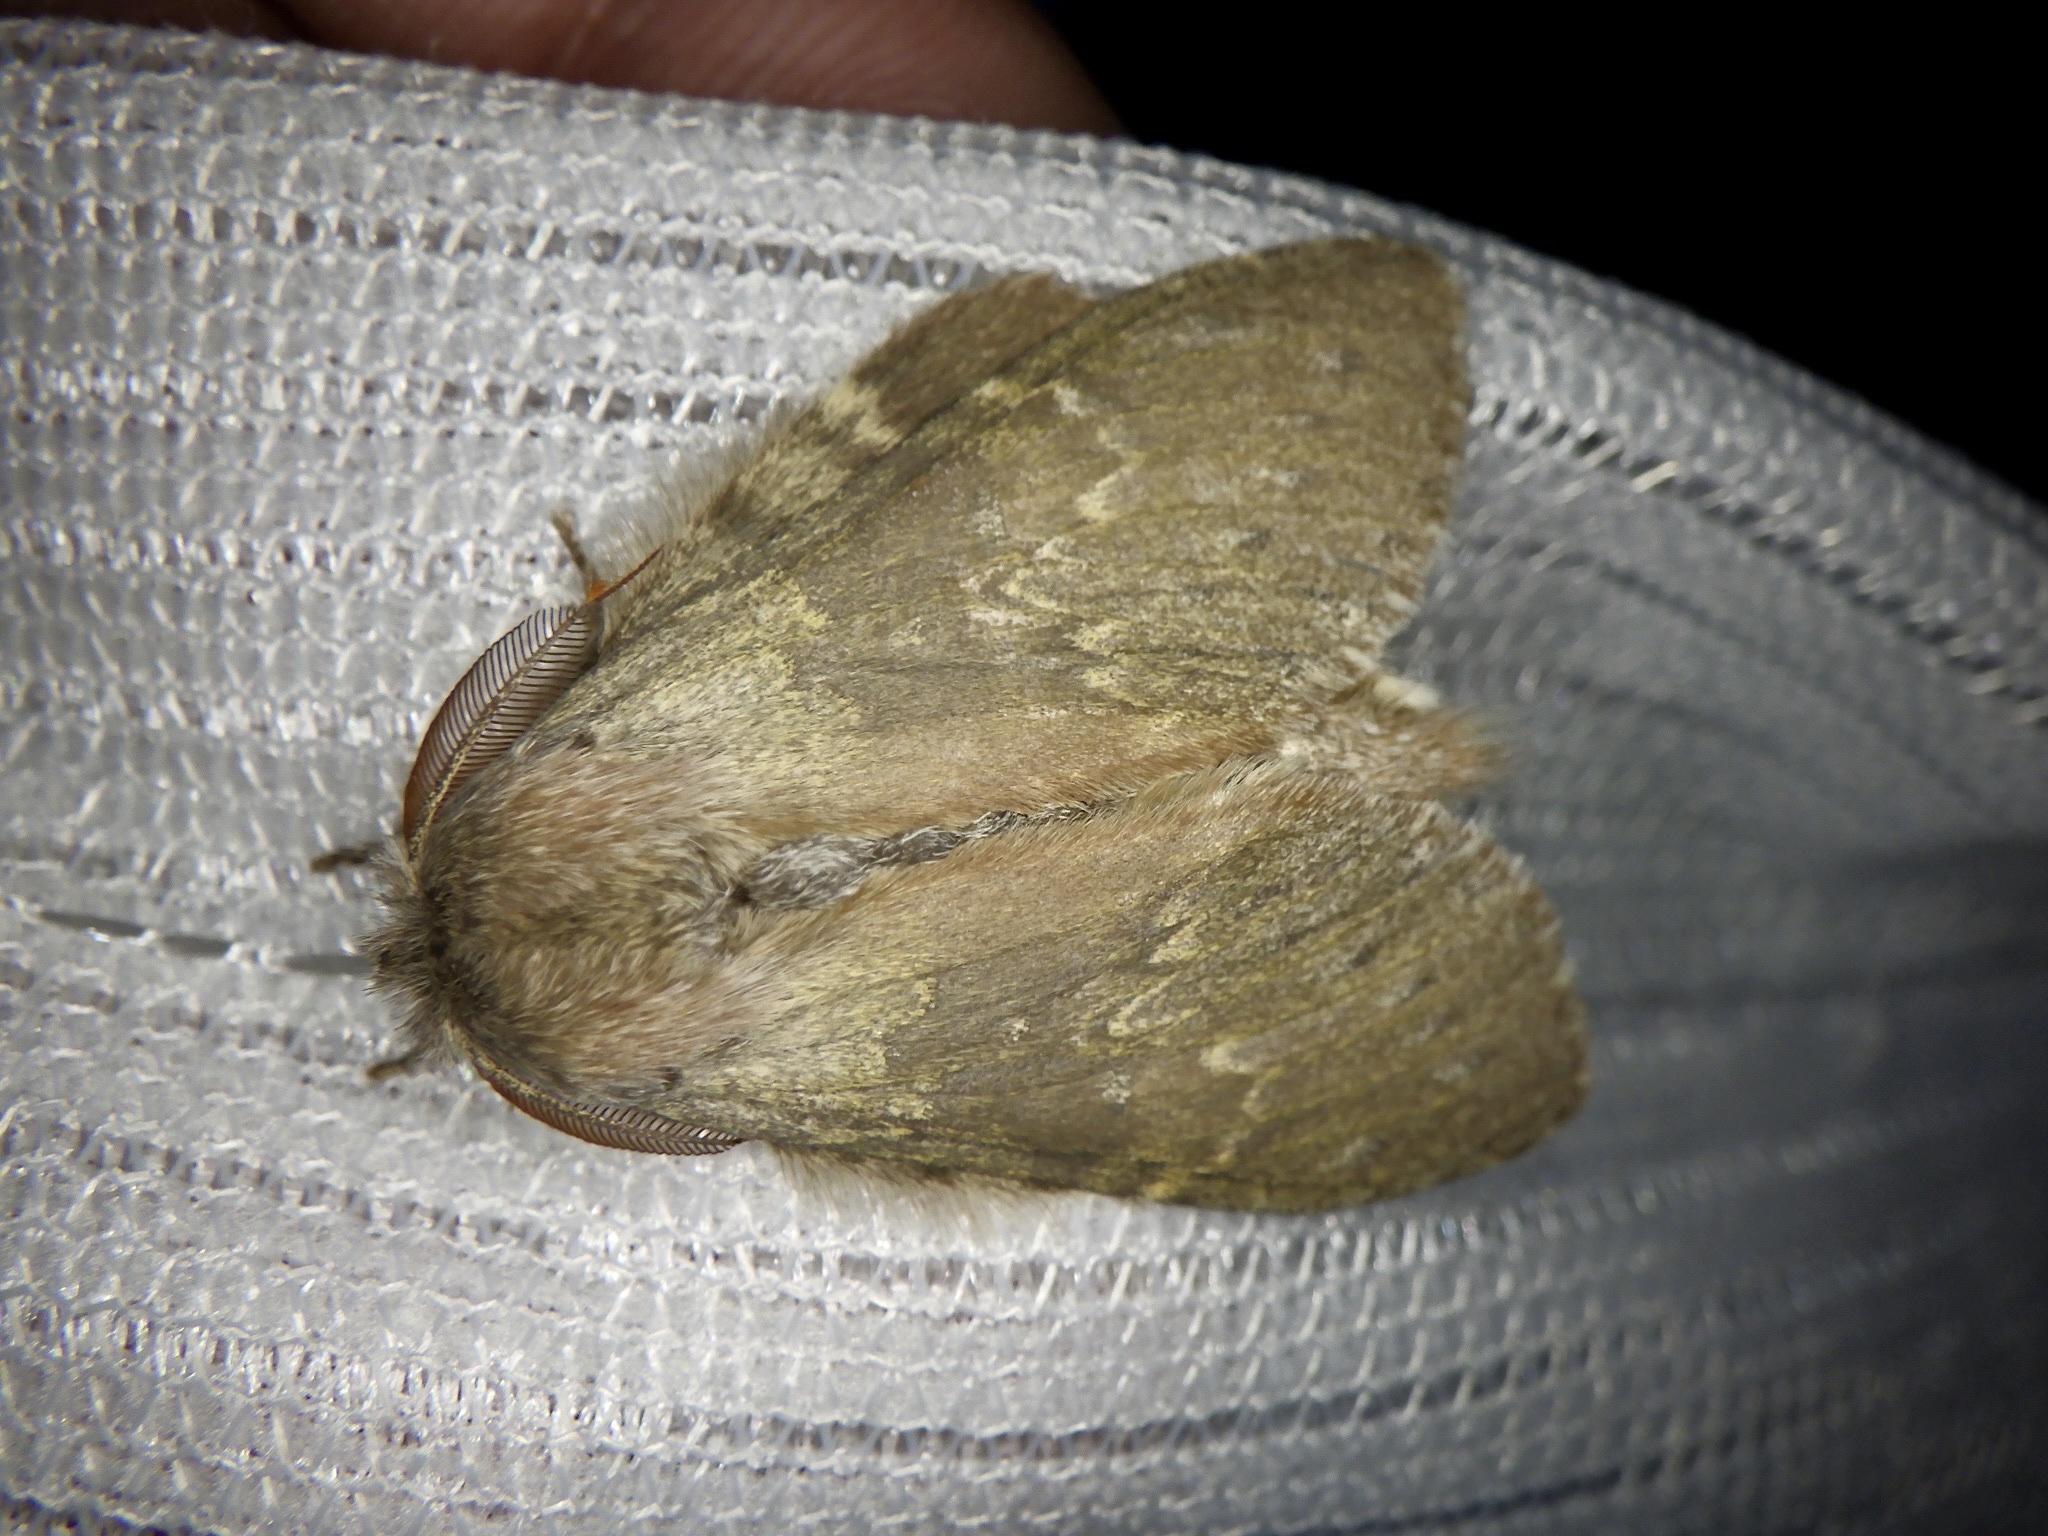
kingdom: Animalia
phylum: Arthropoda
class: Insecta
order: Lepidoptera
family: Notodontidae
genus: Stauropus
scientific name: Stauropus fagi
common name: Lobster moth
